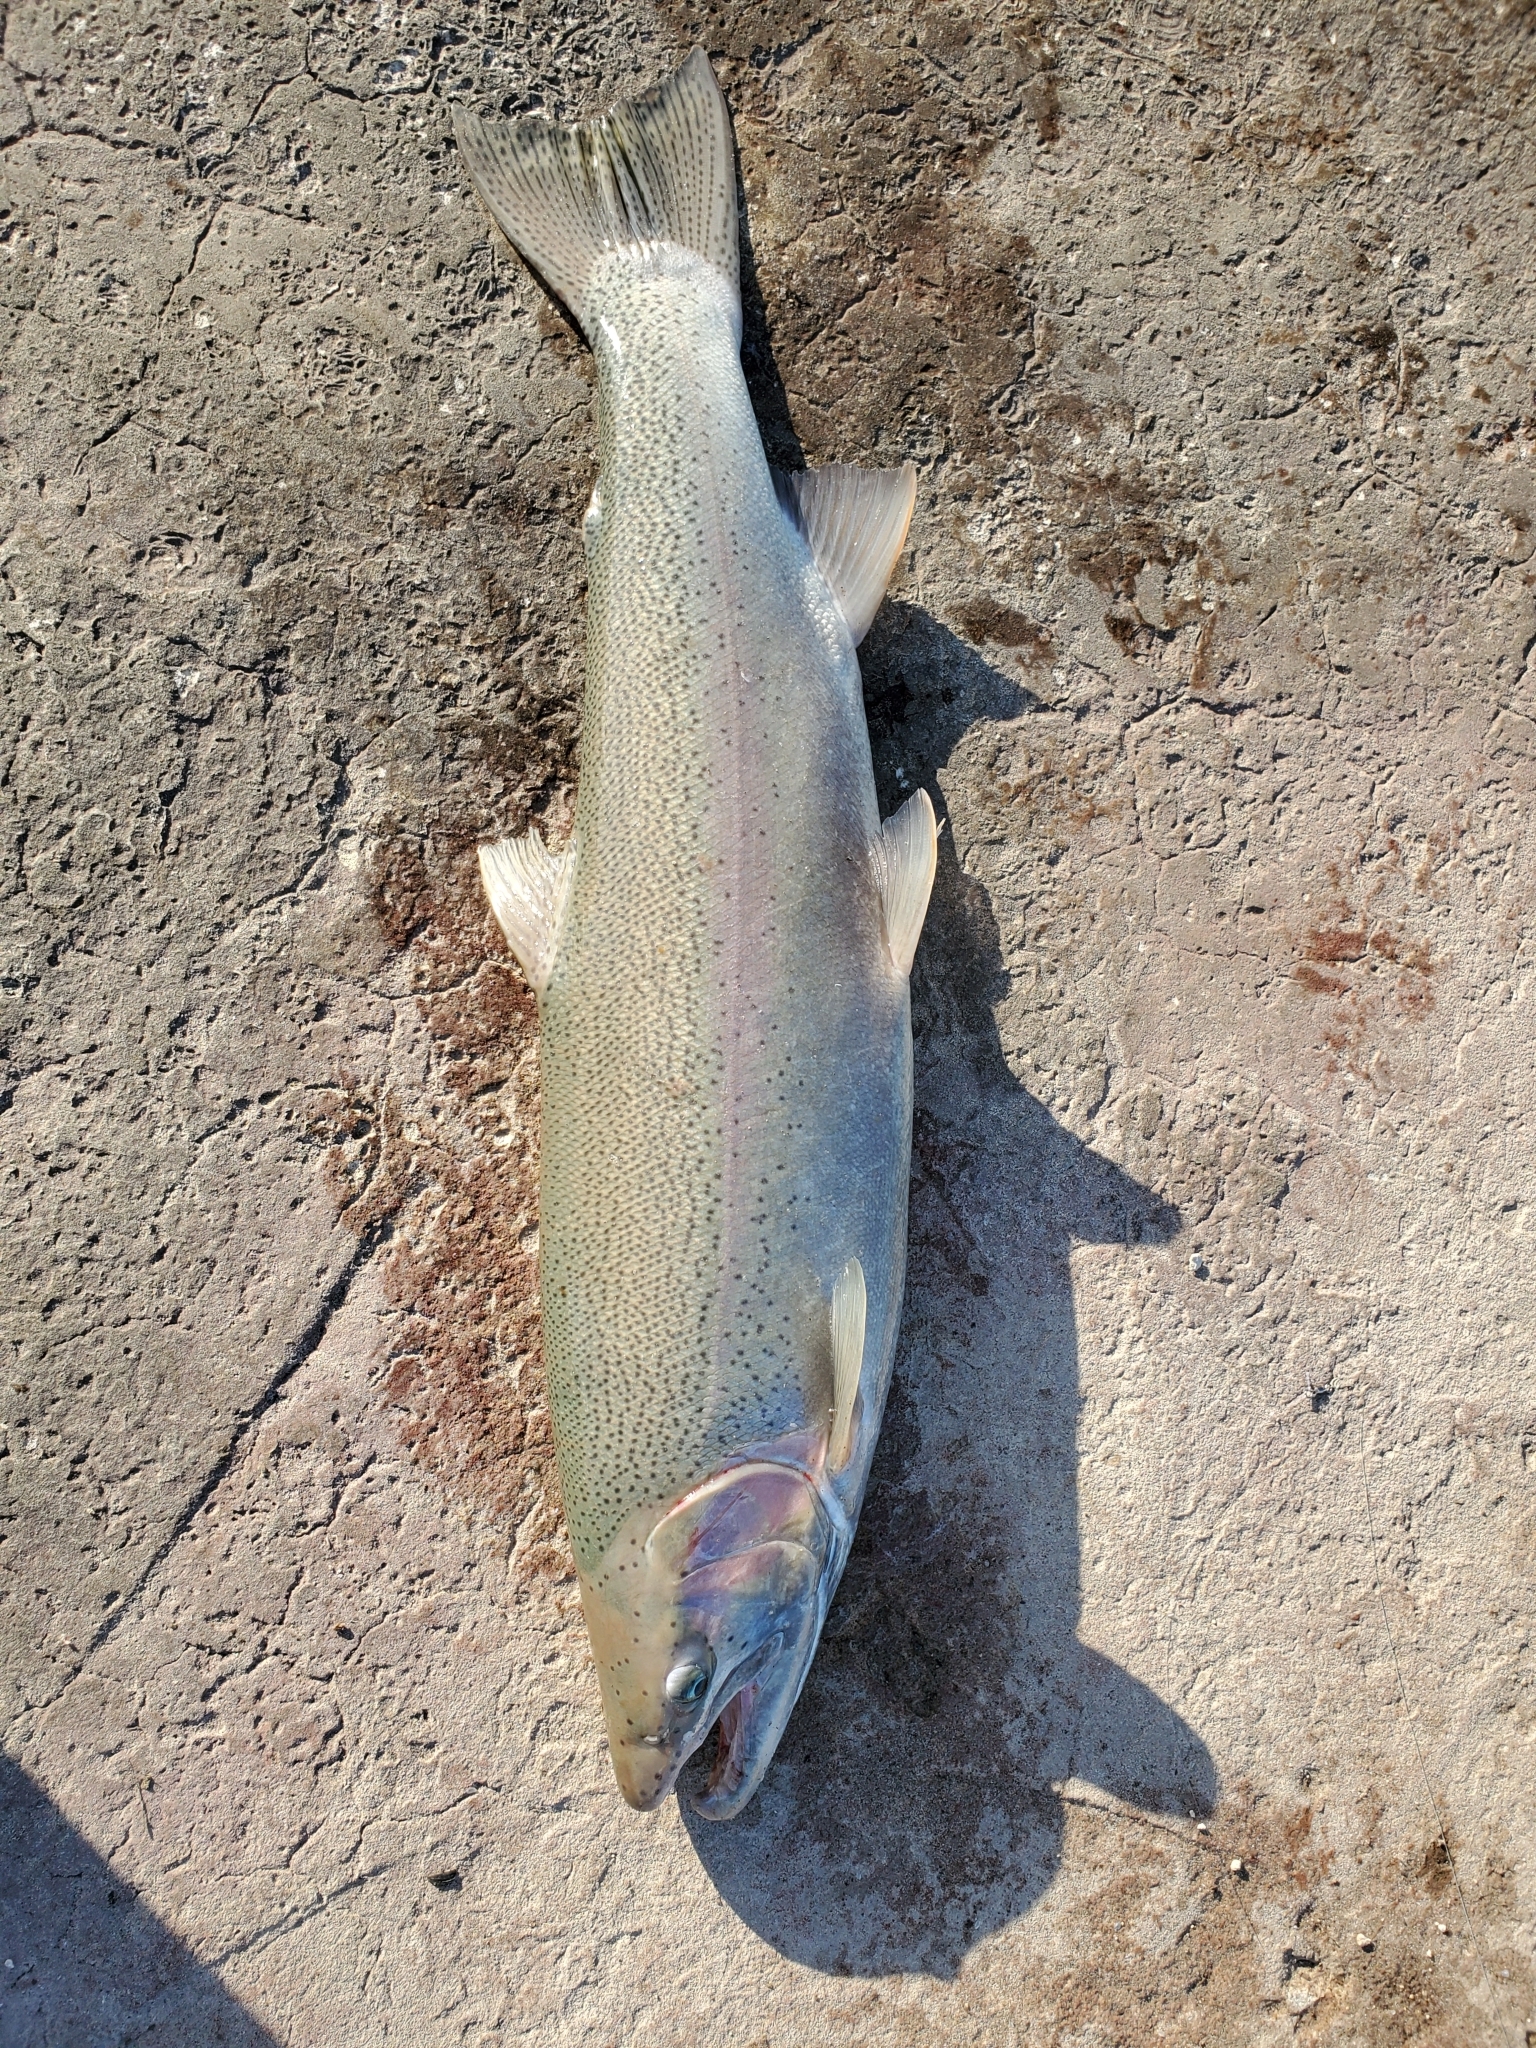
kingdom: Animalia
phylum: Chordata
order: Salmoniformes
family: Salmonidae
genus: Oncorhynchus
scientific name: Oncorhynchus mykiss
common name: Rainbow trout
